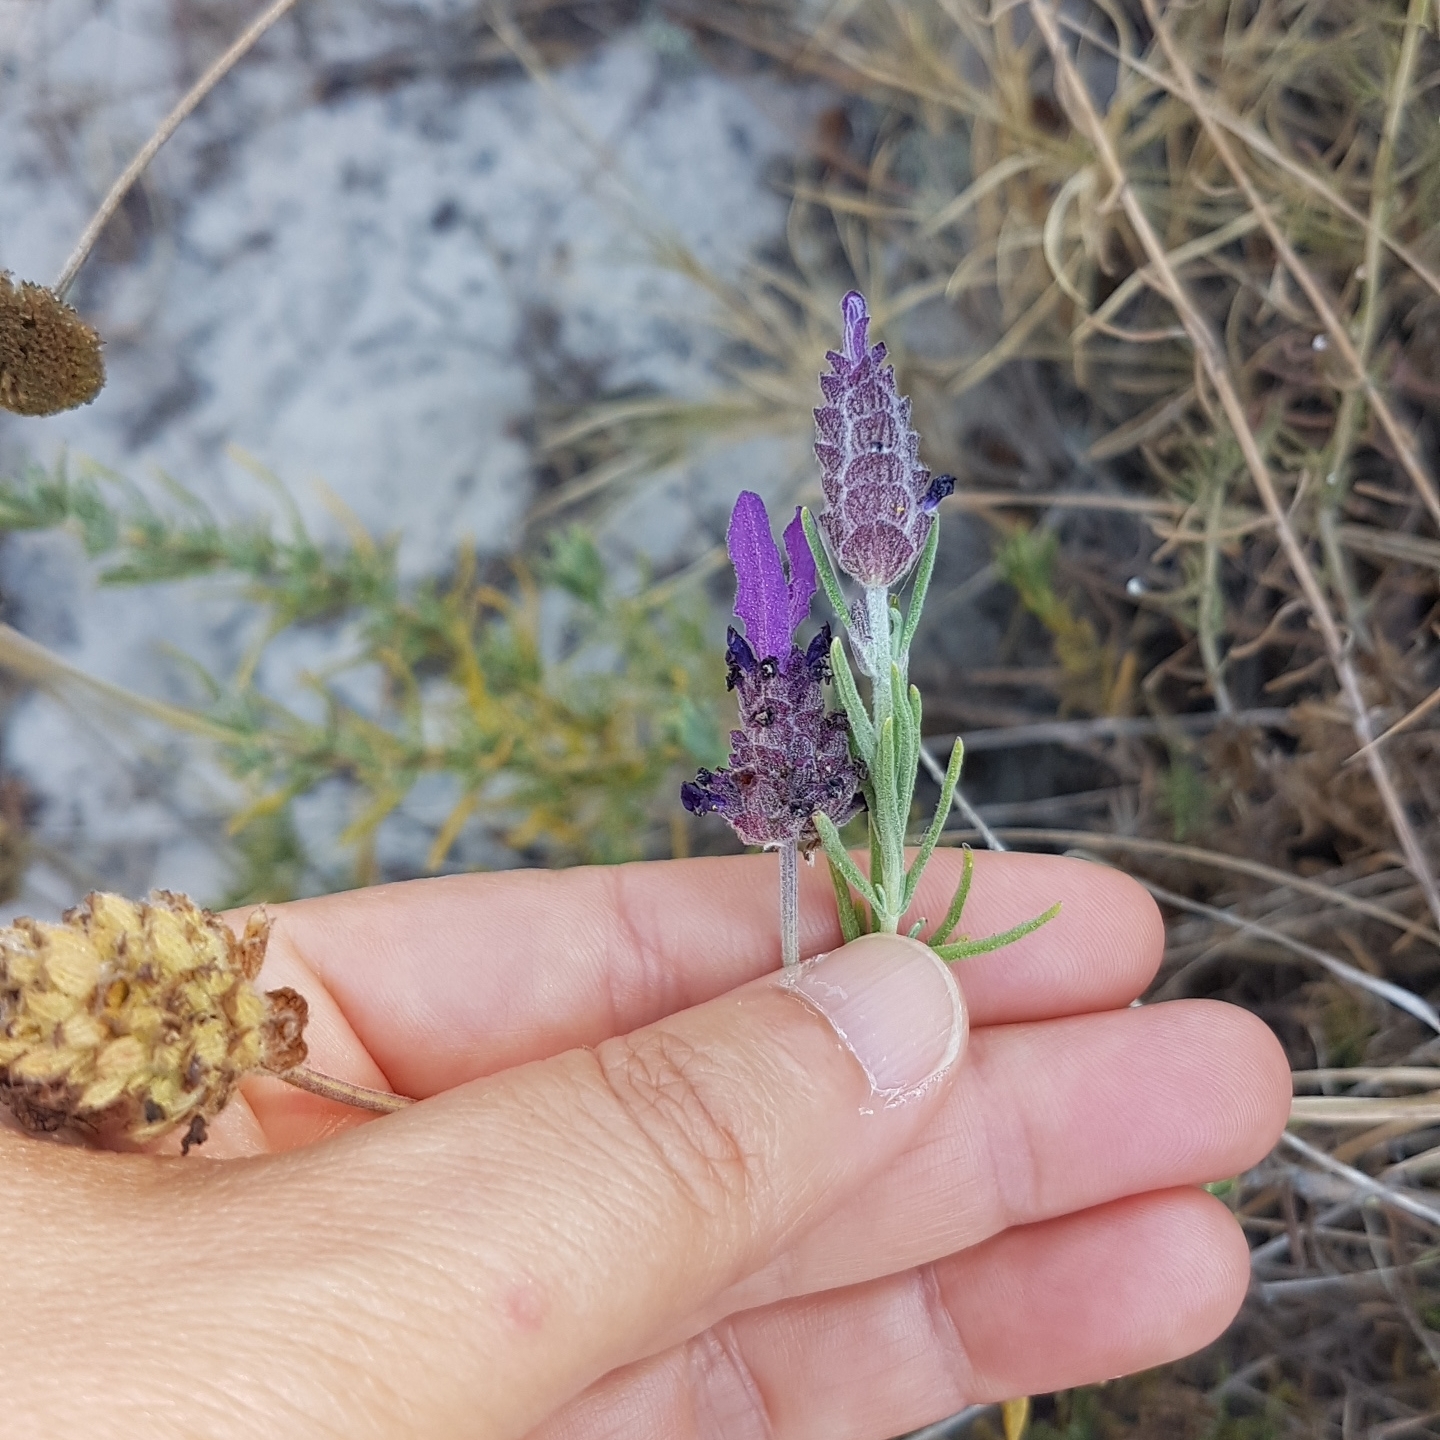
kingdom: Plantae
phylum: Tracheophyta
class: Magnoliopsida
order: Lamiales
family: Lamiaceae
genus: Lavandula
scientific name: Lavandula stoechas
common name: French lavender
